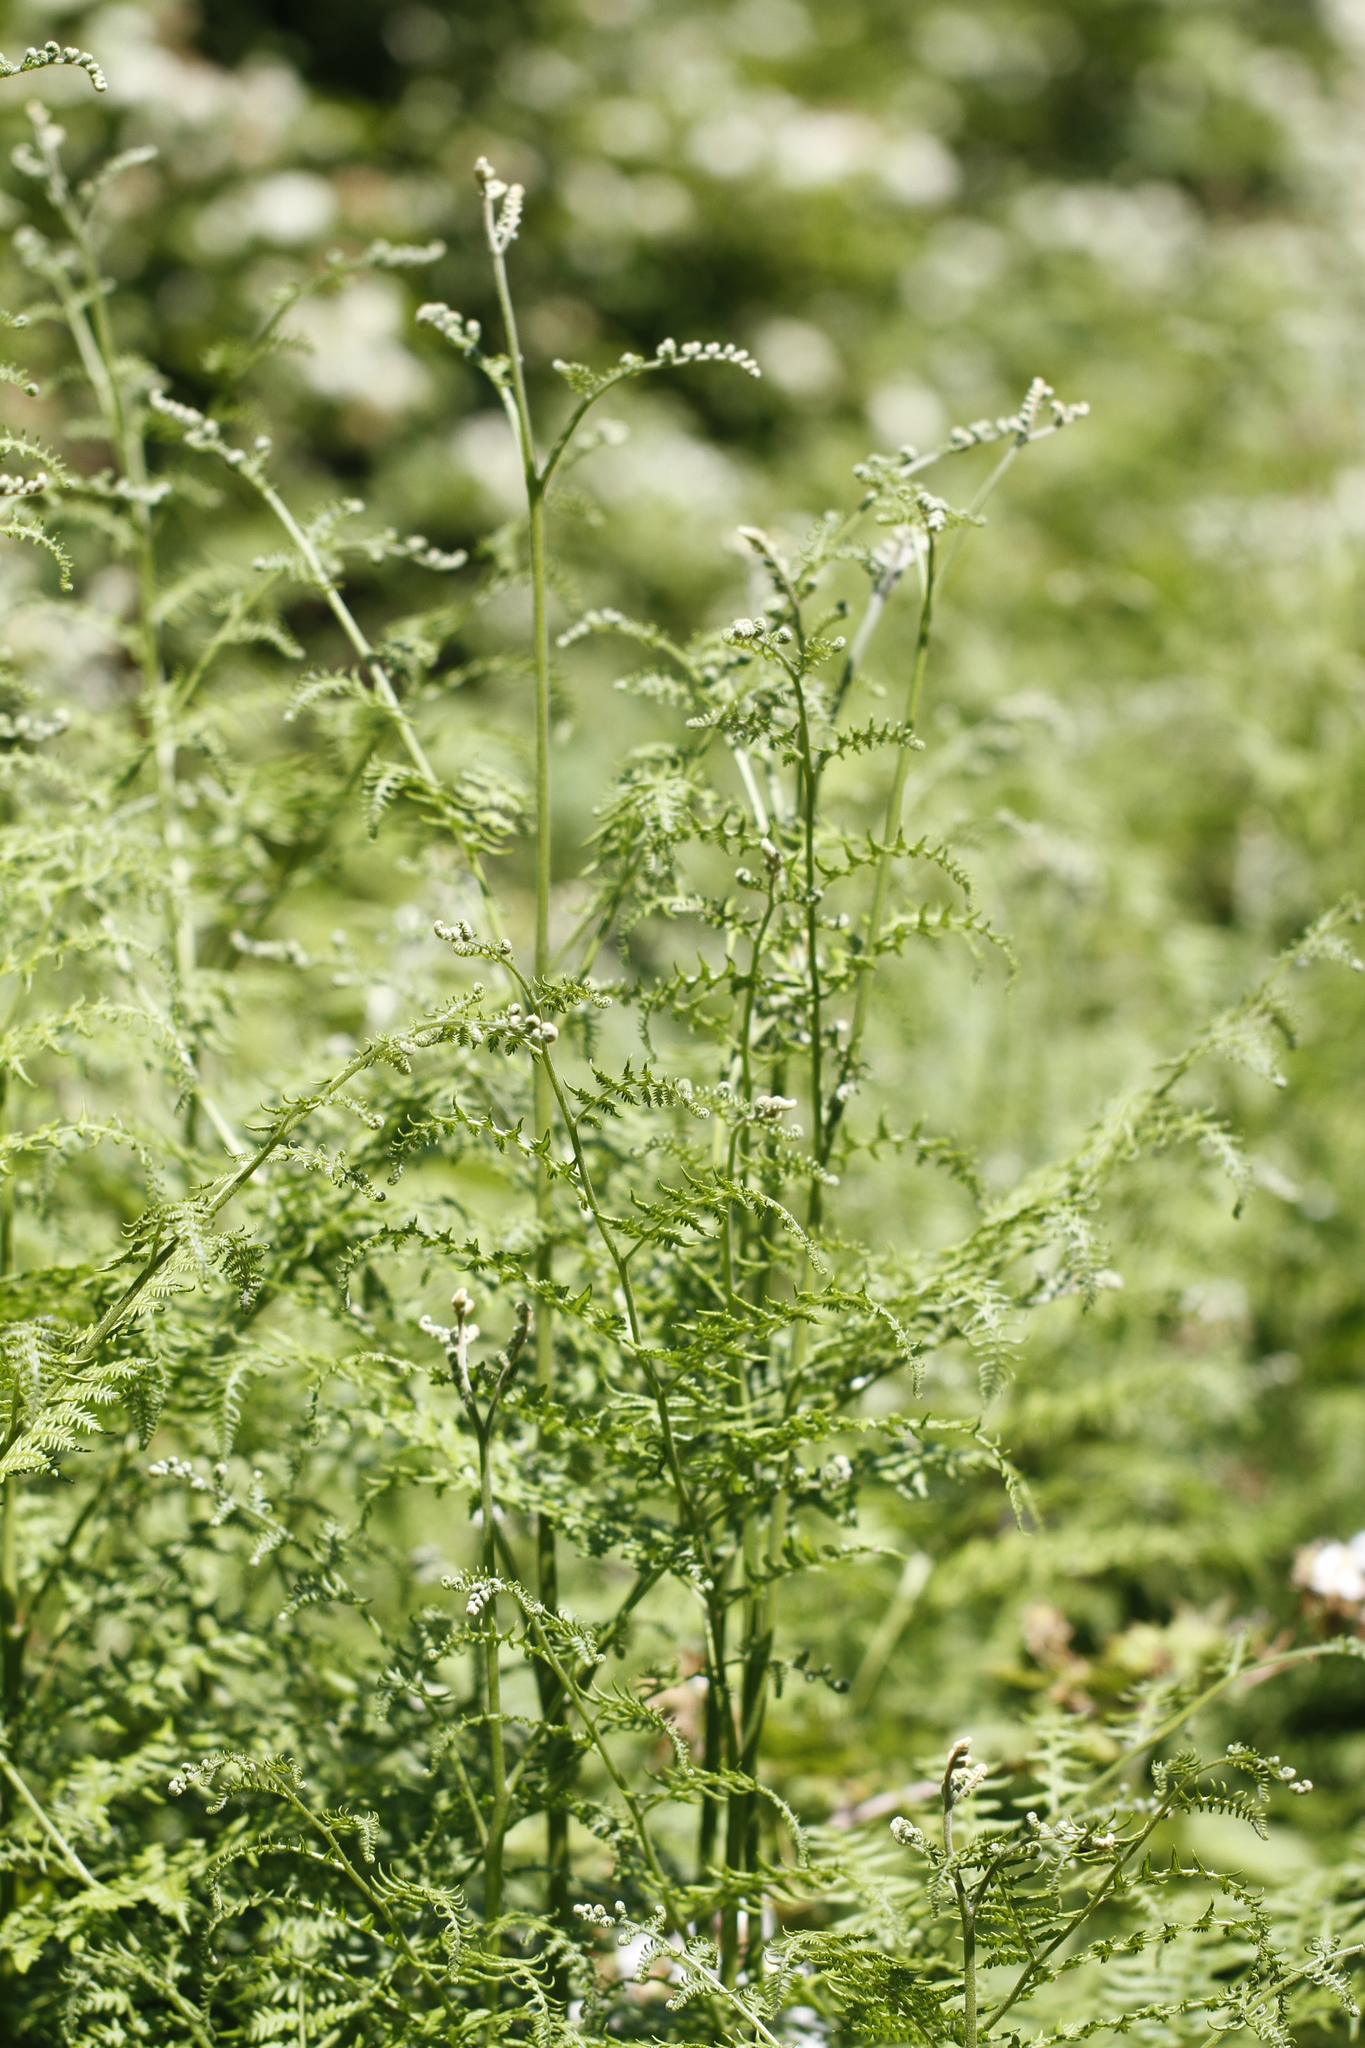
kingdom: Plantae
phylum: Tracheophyta
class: Polypodiopsida
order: Polypodiales
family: Dennstaedtiaceae
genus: Pteridium
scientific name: Pteridium aquilinum
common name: Bracken
